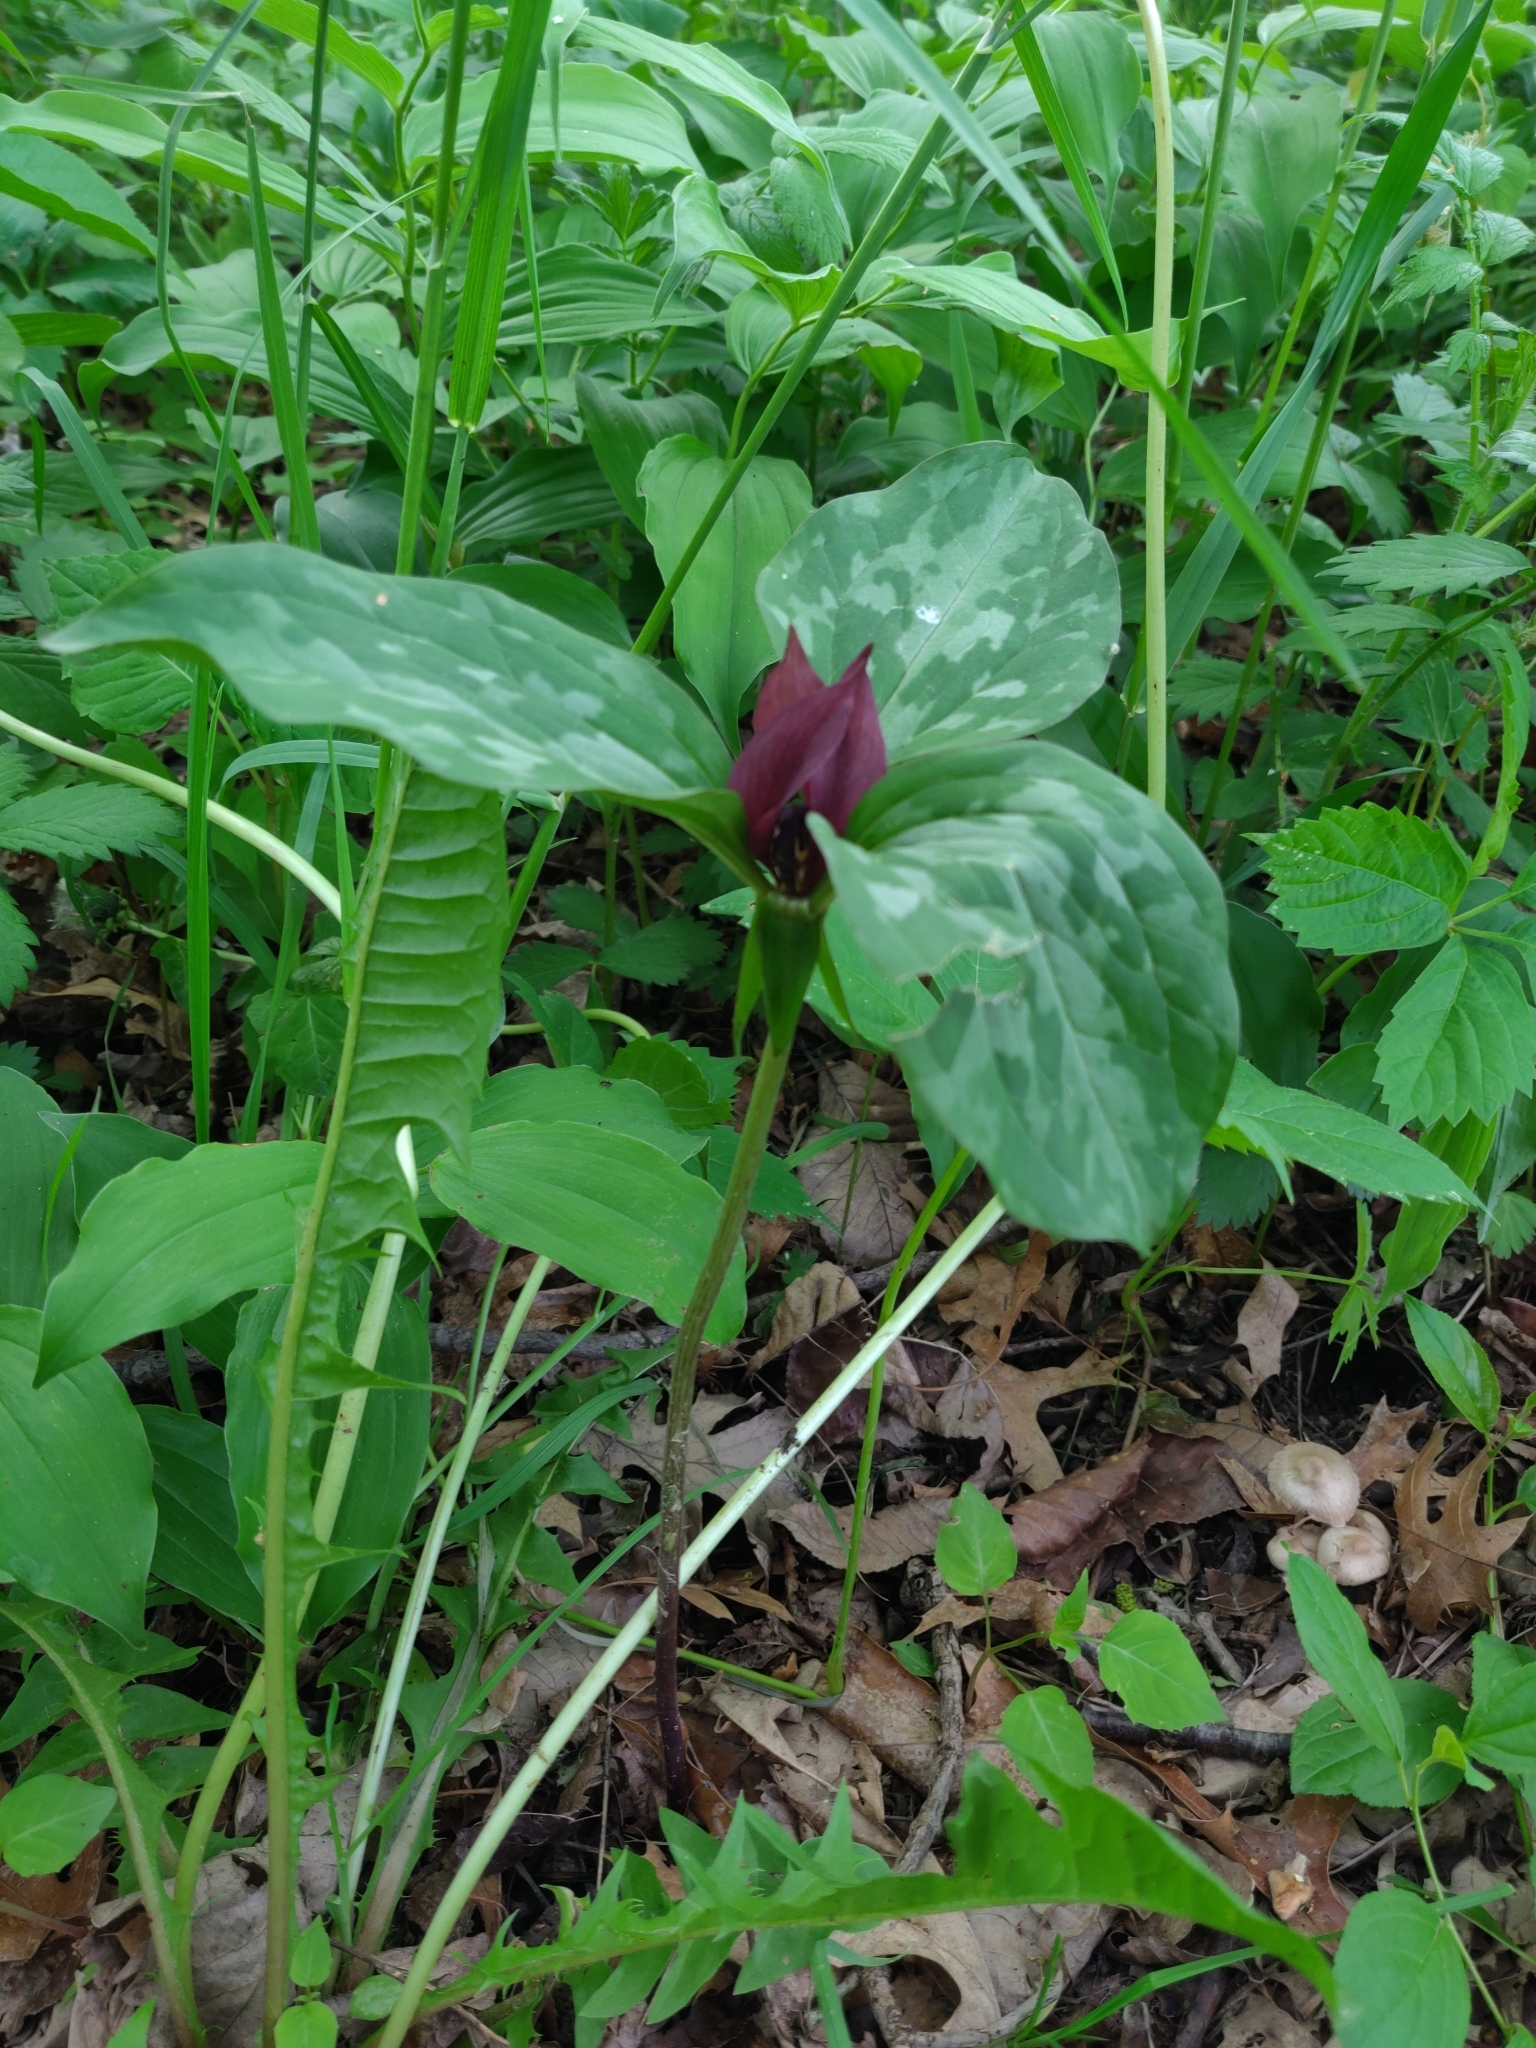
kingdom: Plantae
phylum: Tracheophyta
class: Liliopsida
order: Liliales
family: Melanthiaceae
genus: Trillium
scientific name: Trillium recurvatum
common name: Bloody butcher
